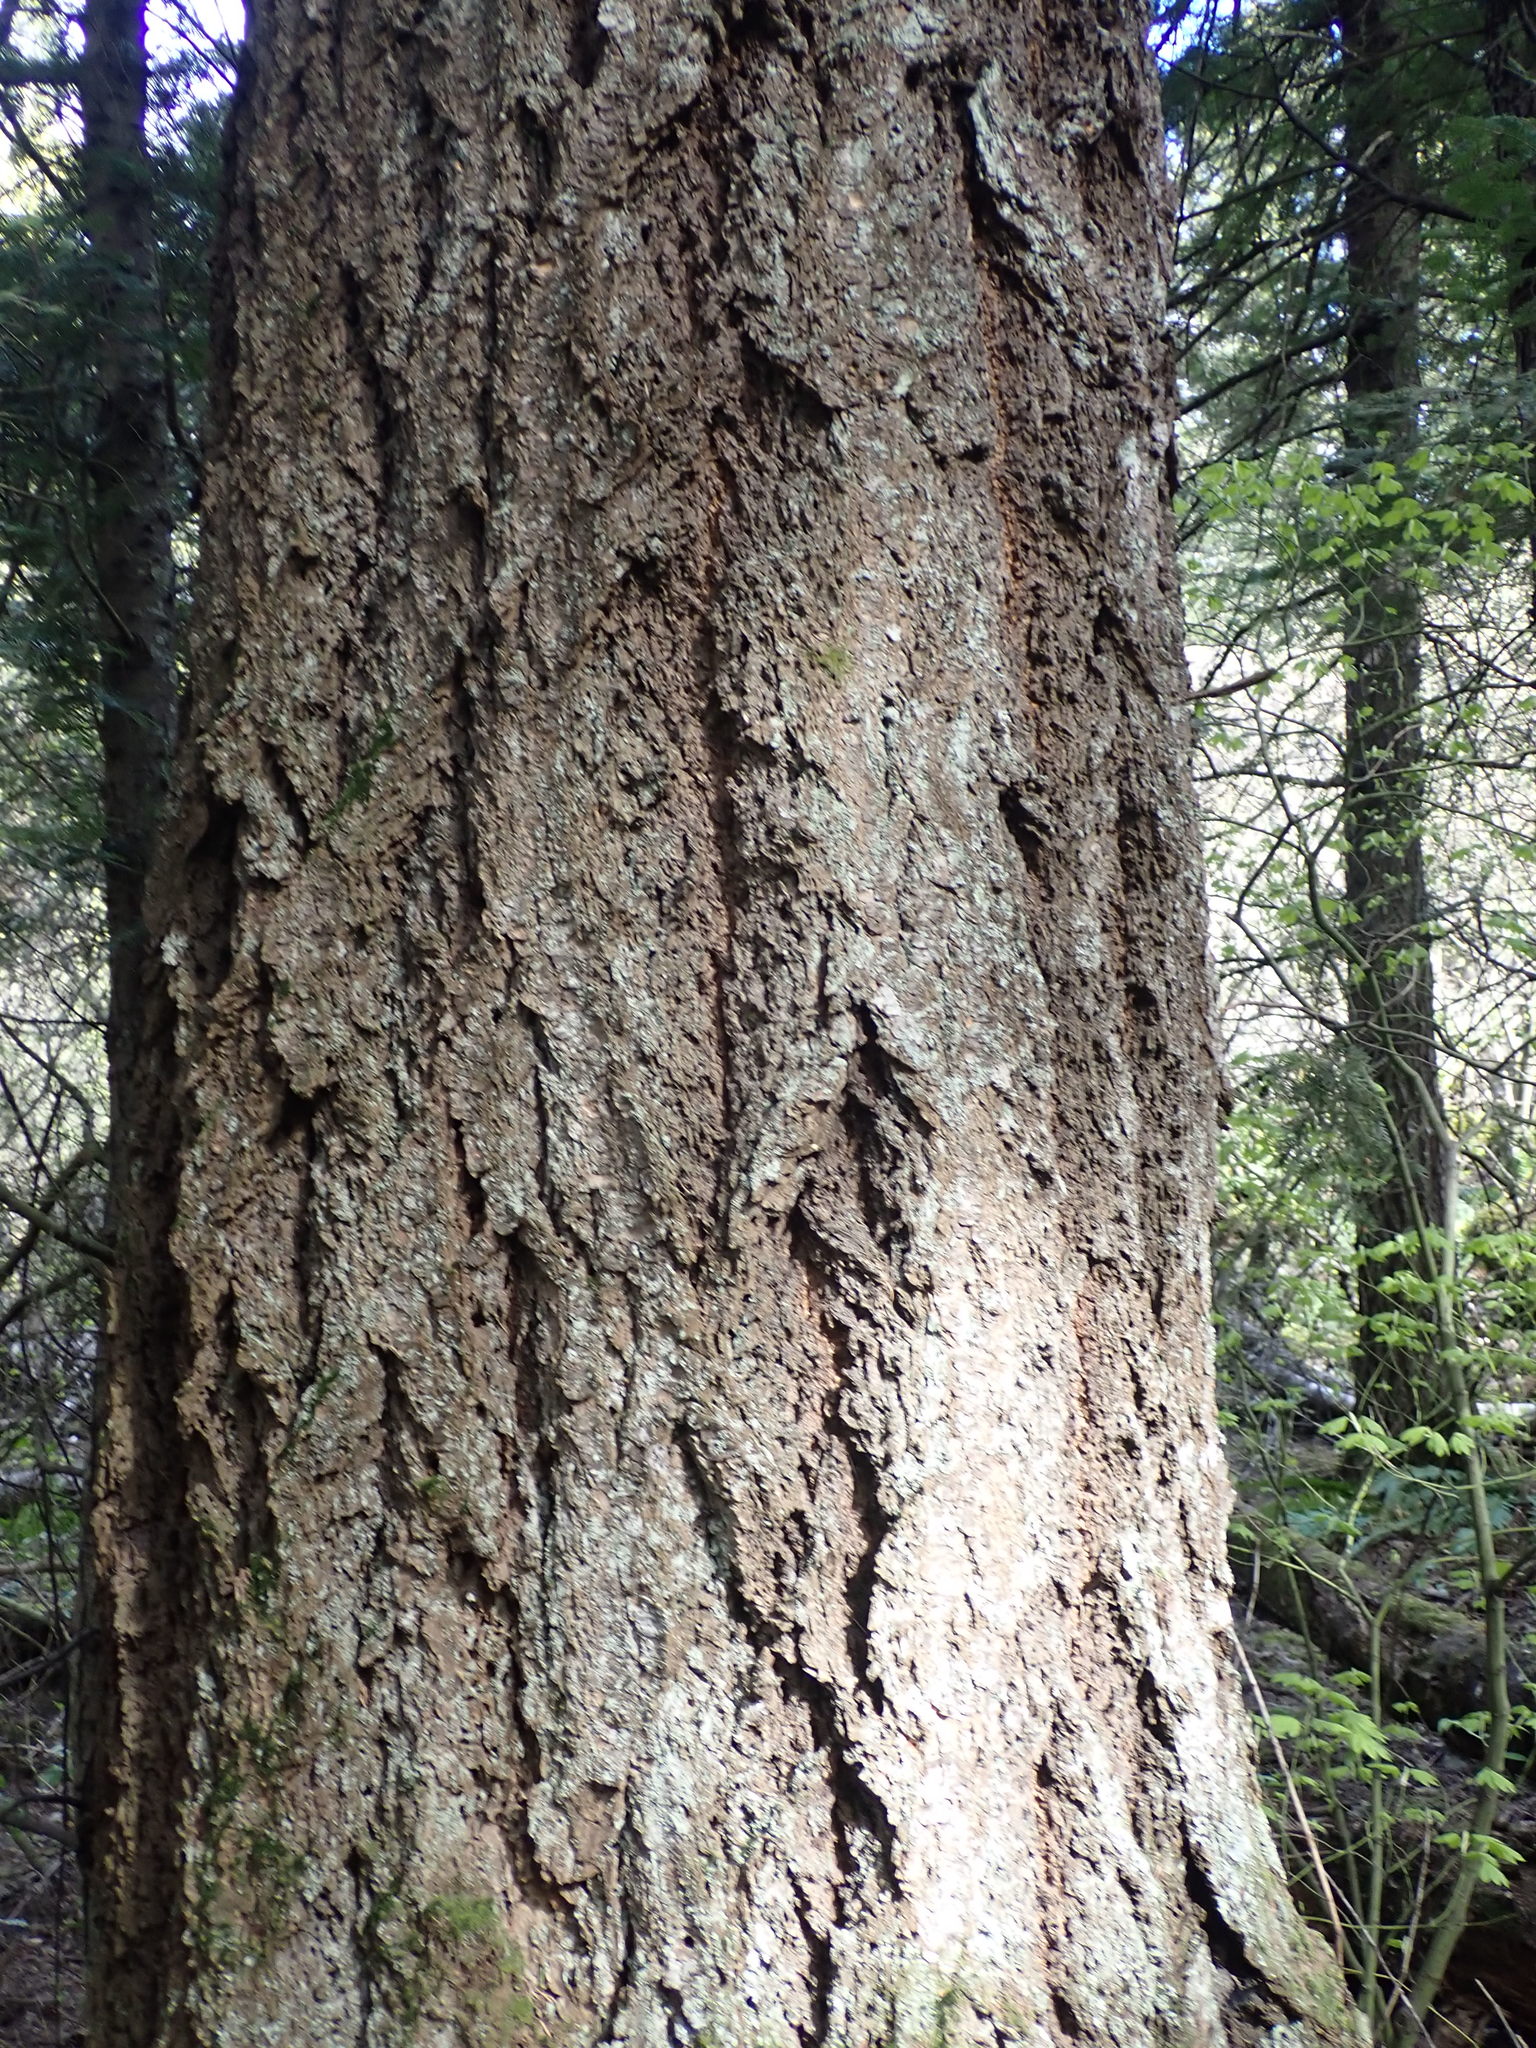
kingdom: Plantae
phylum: Tracheophyta
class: Pinopsida
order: Pinales
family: Pinaceae
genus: Pseudotsuga
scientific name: Pseudotsuga menziesii
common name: Douglas fir
